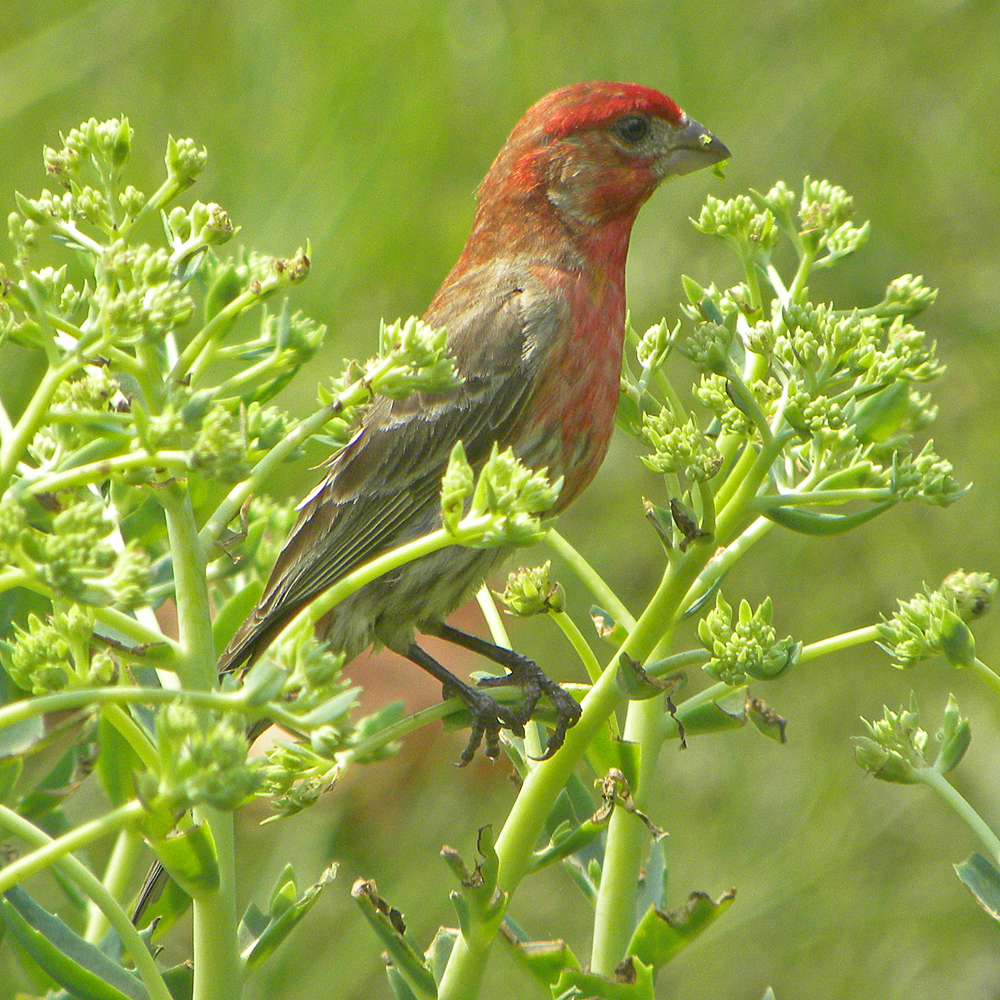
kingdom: Animalia
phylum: Chordata
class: Aves
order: Passeriformes
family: Fringillidae
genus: Haemorhous
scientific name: Haemorhous mexicanus
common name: House finch
